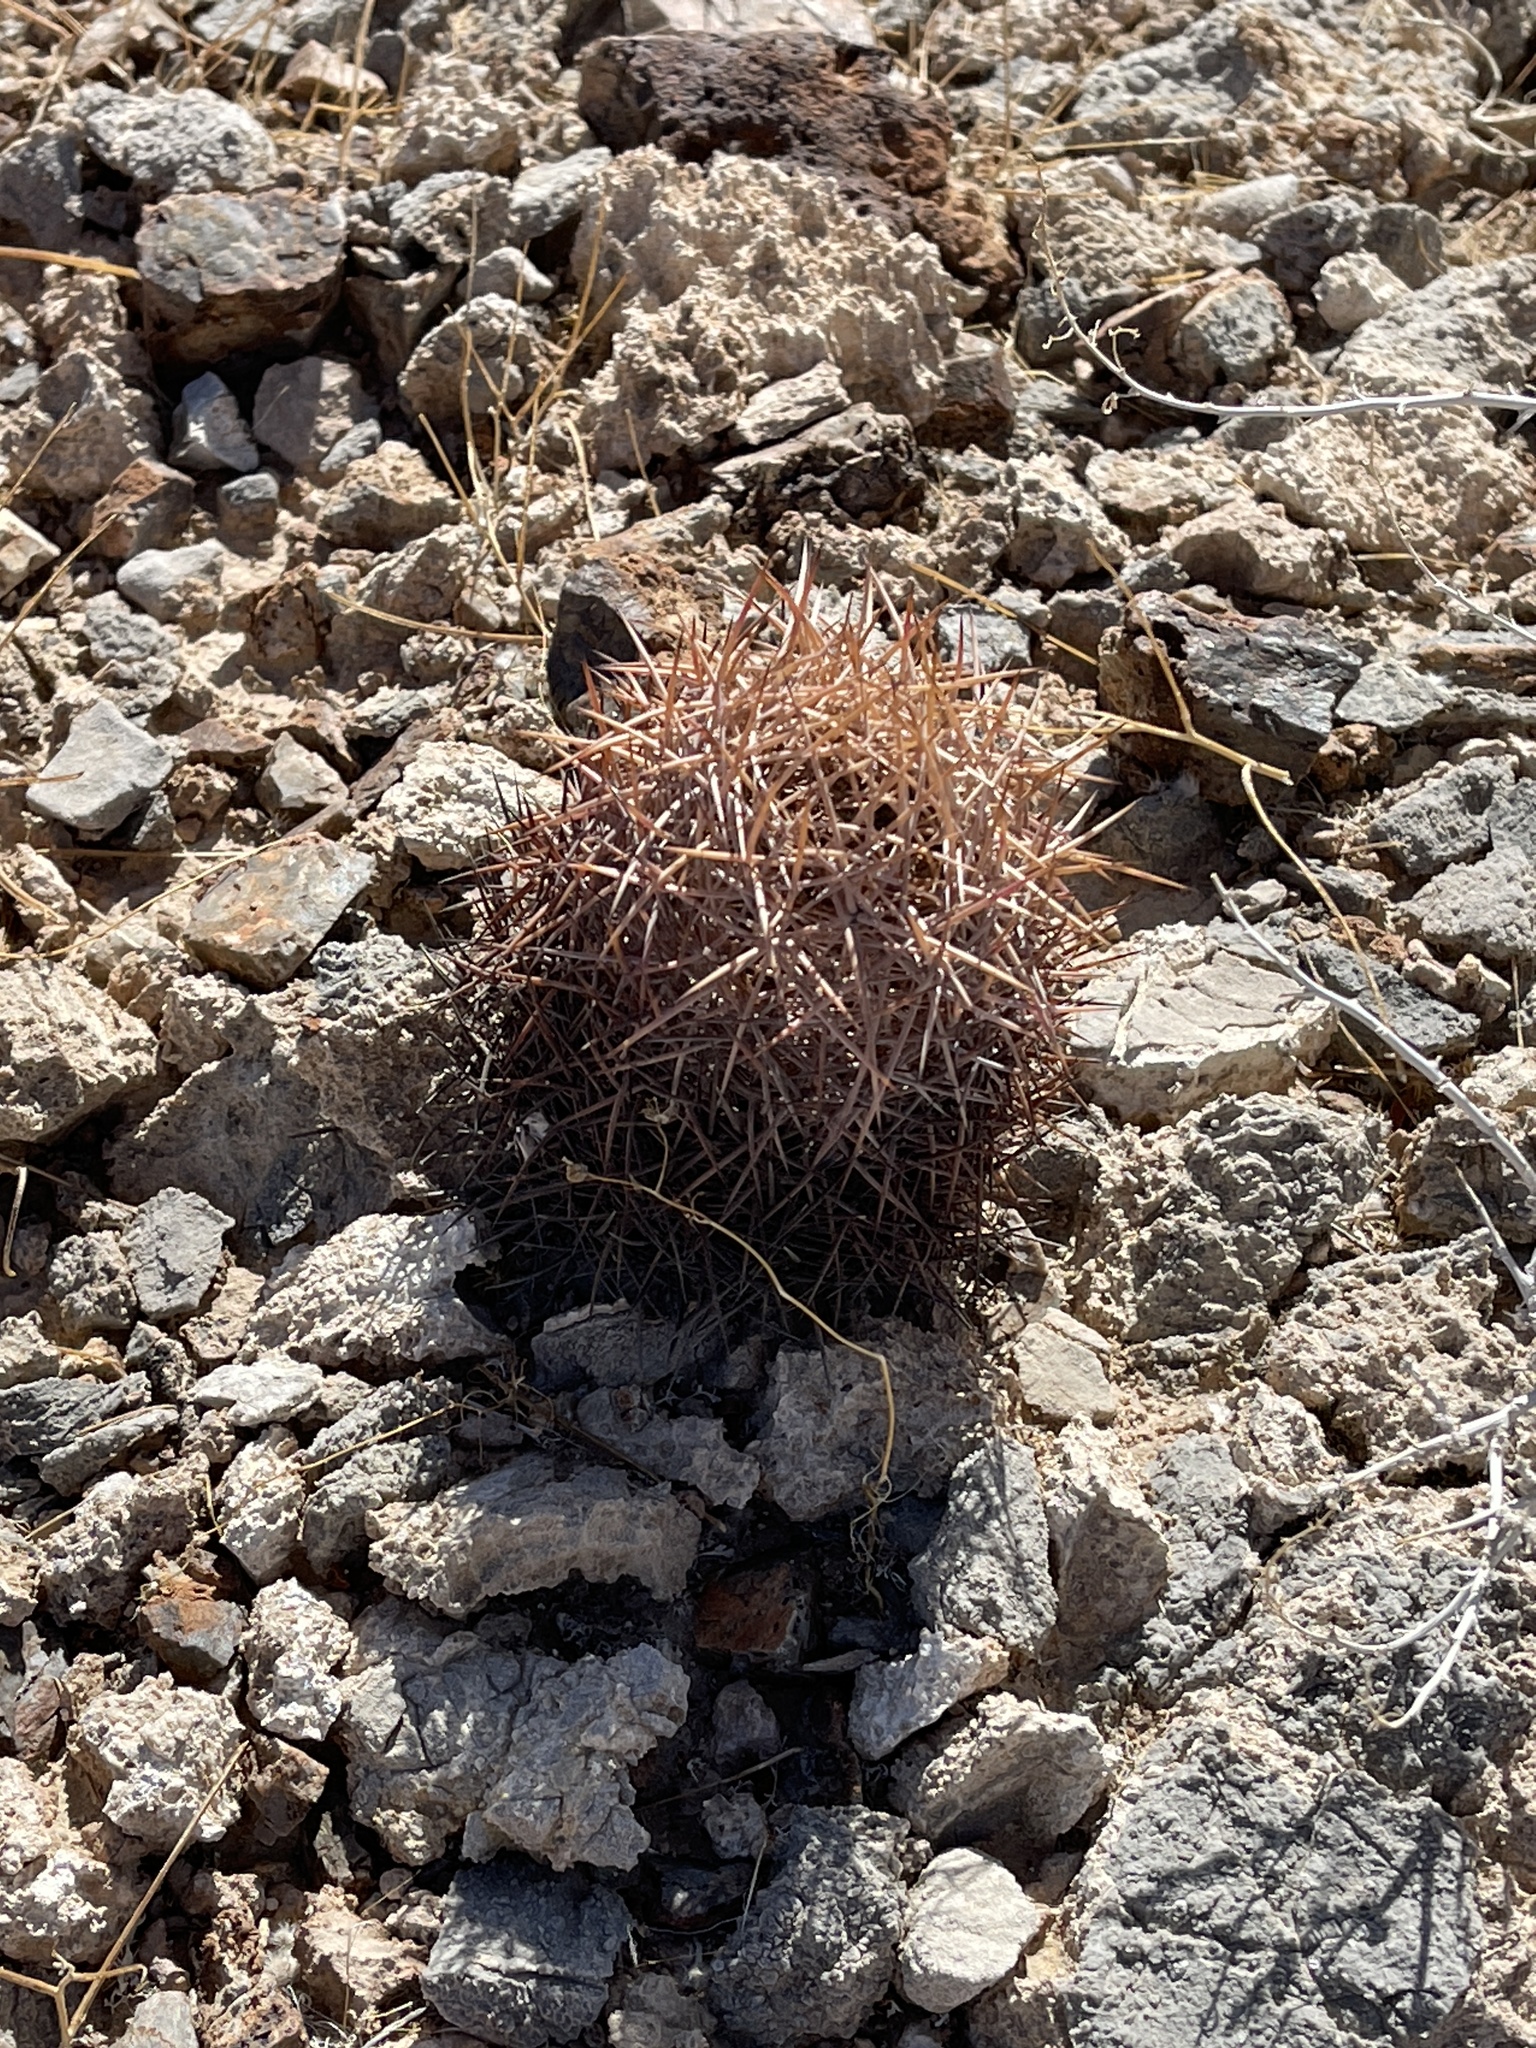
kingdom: Plantae
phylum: Tracheophyta
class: Magnoliopsida
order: Caryophyllales
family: Cactaceae
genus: Sclerocactus
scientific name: Sclerocactus johnsonii
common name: Eight-spine fishhook cactus
